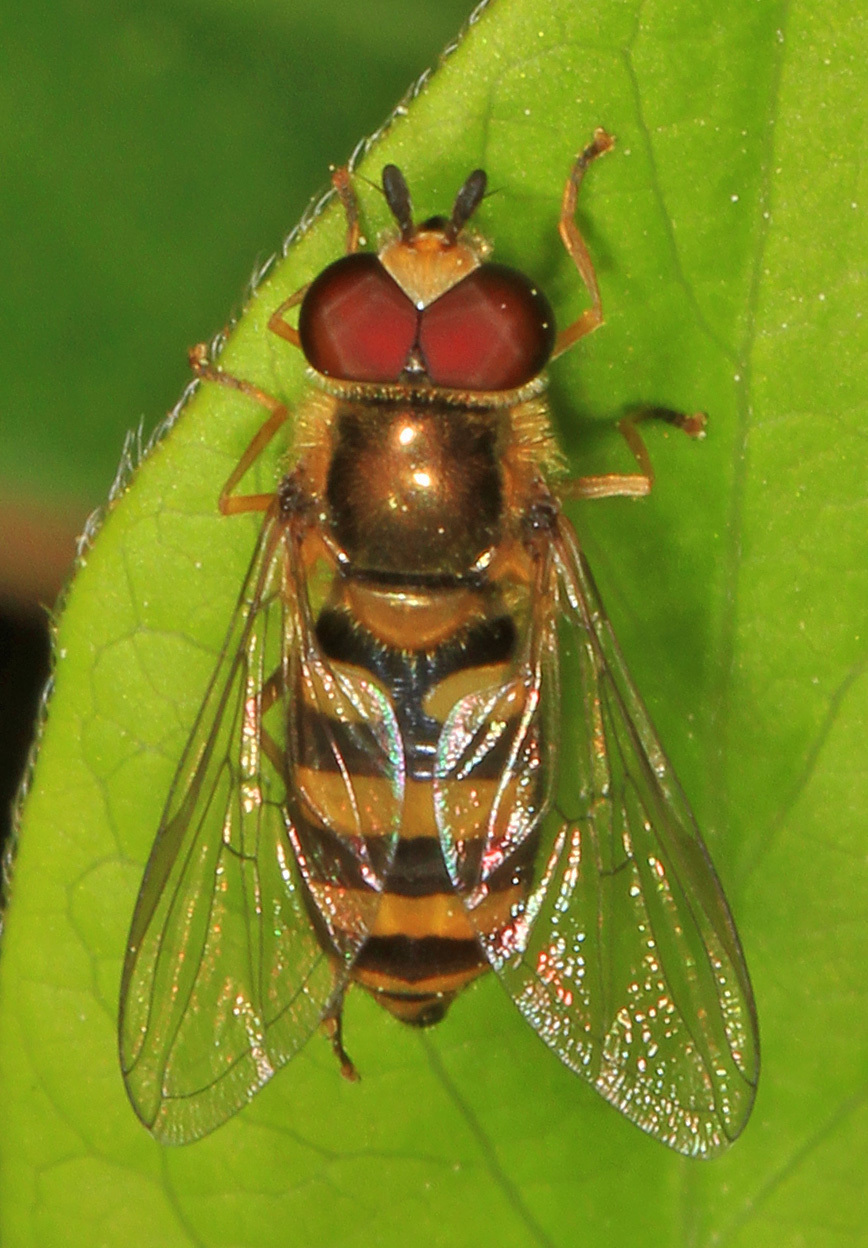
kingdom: Animalia
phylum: Arthropoda
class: Insecta
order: Diptera
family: Syrphidae
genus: Eupeodes
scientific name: Eupeodes
